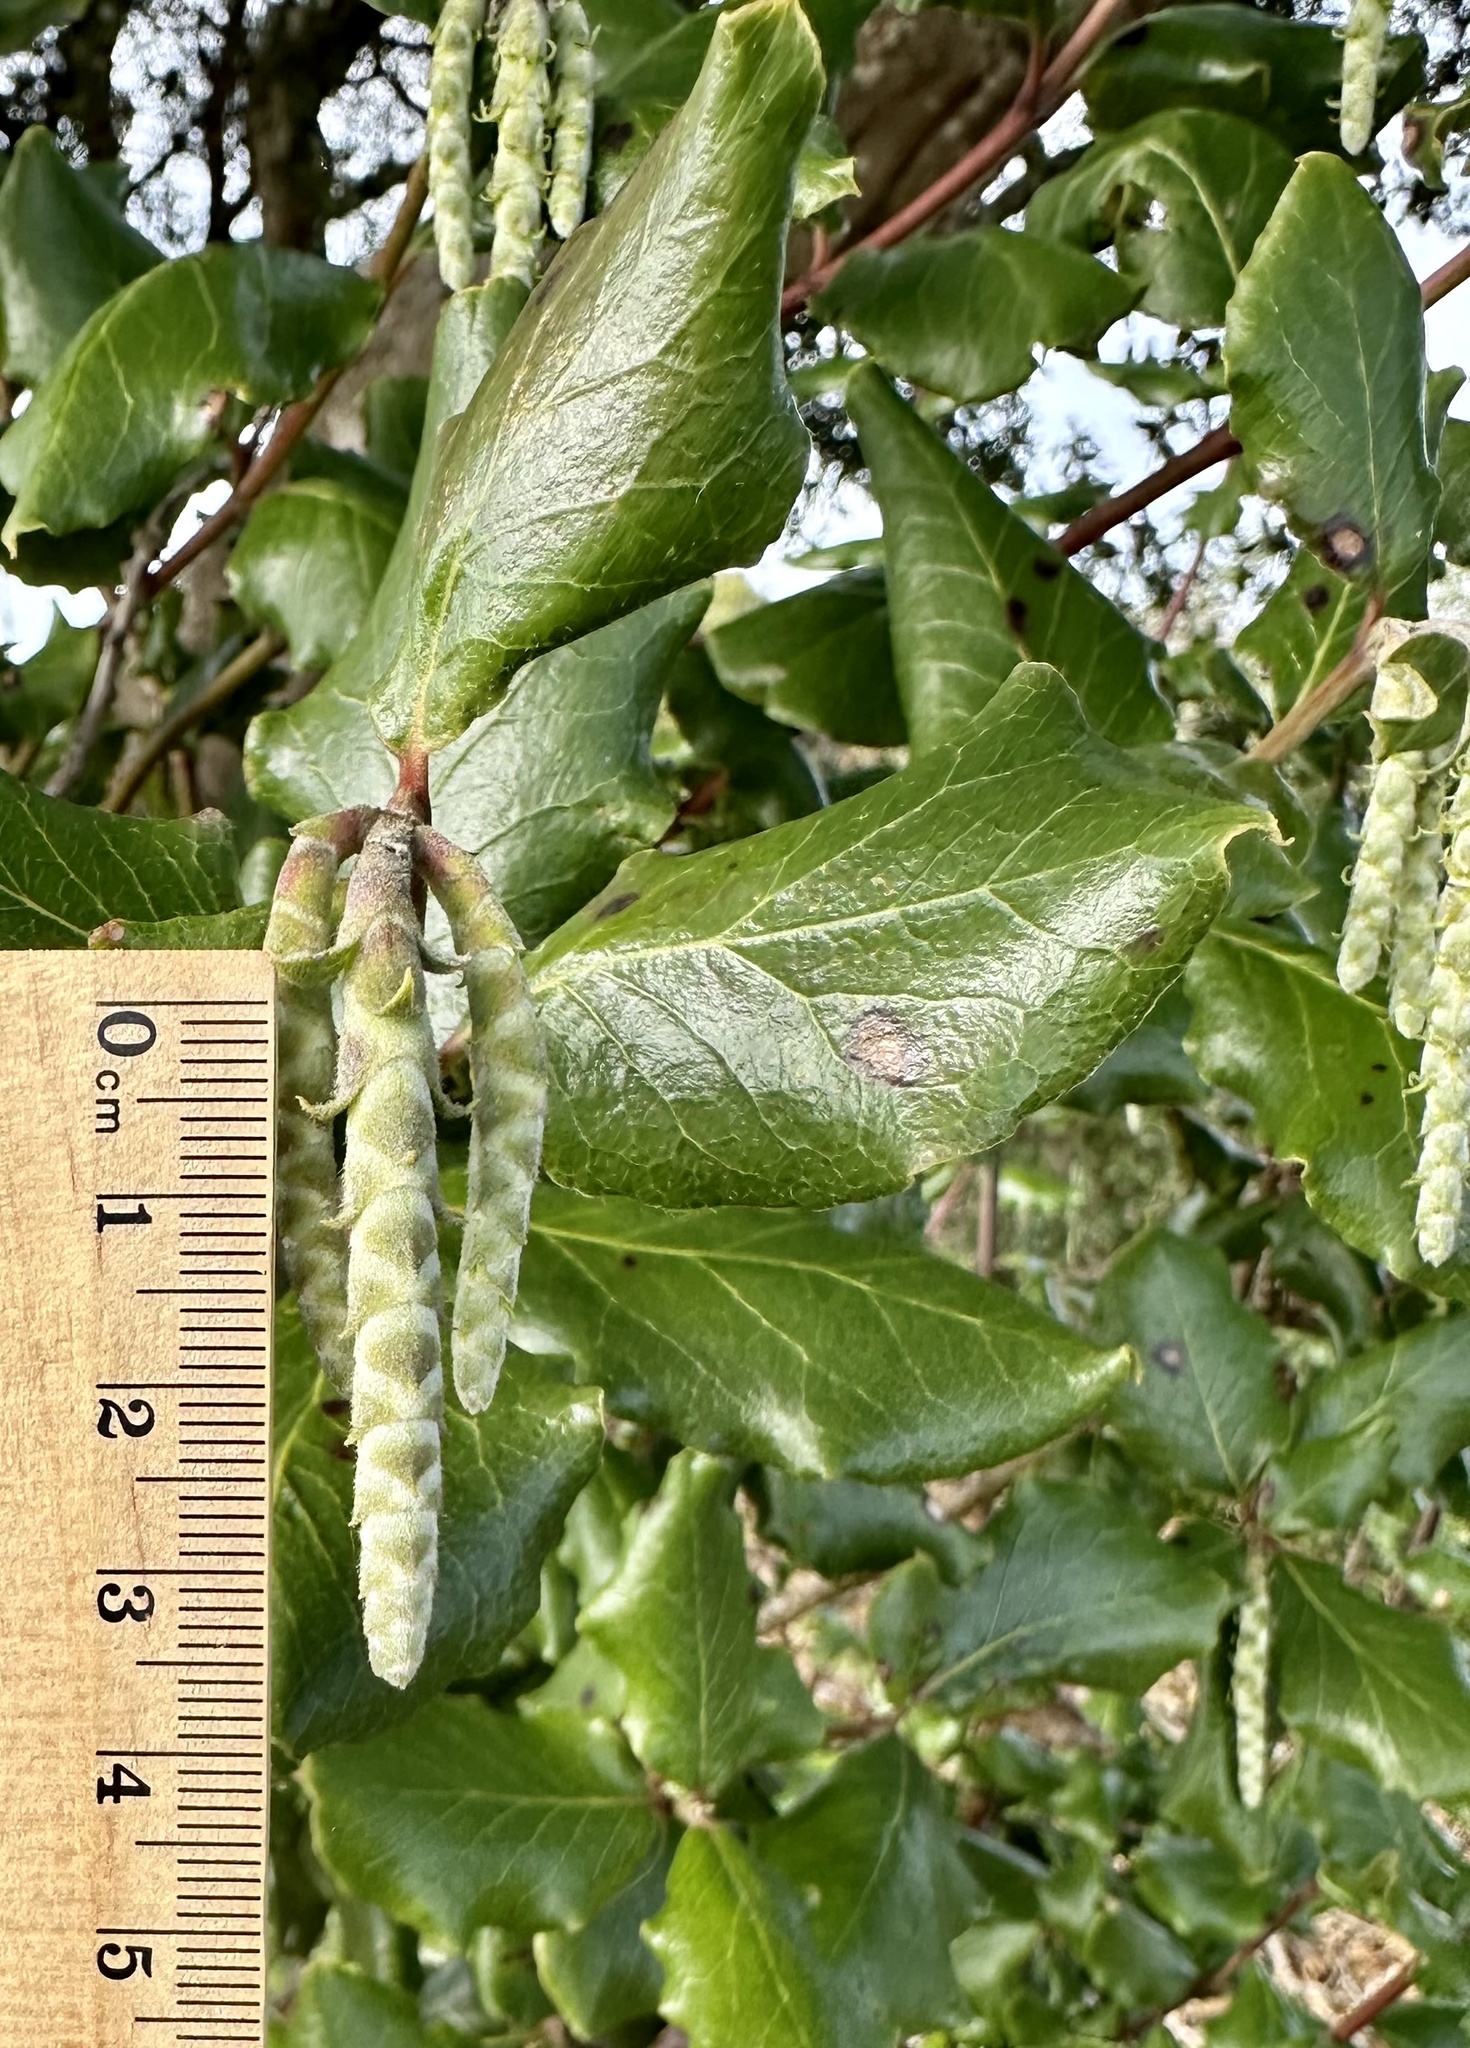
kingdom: Plantae
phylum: Tracheophyta
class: Magnoliopsida
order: Garryales
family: Garryaceae
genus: Garrya
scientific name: Garrya elliptica
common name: Silk-tassel
